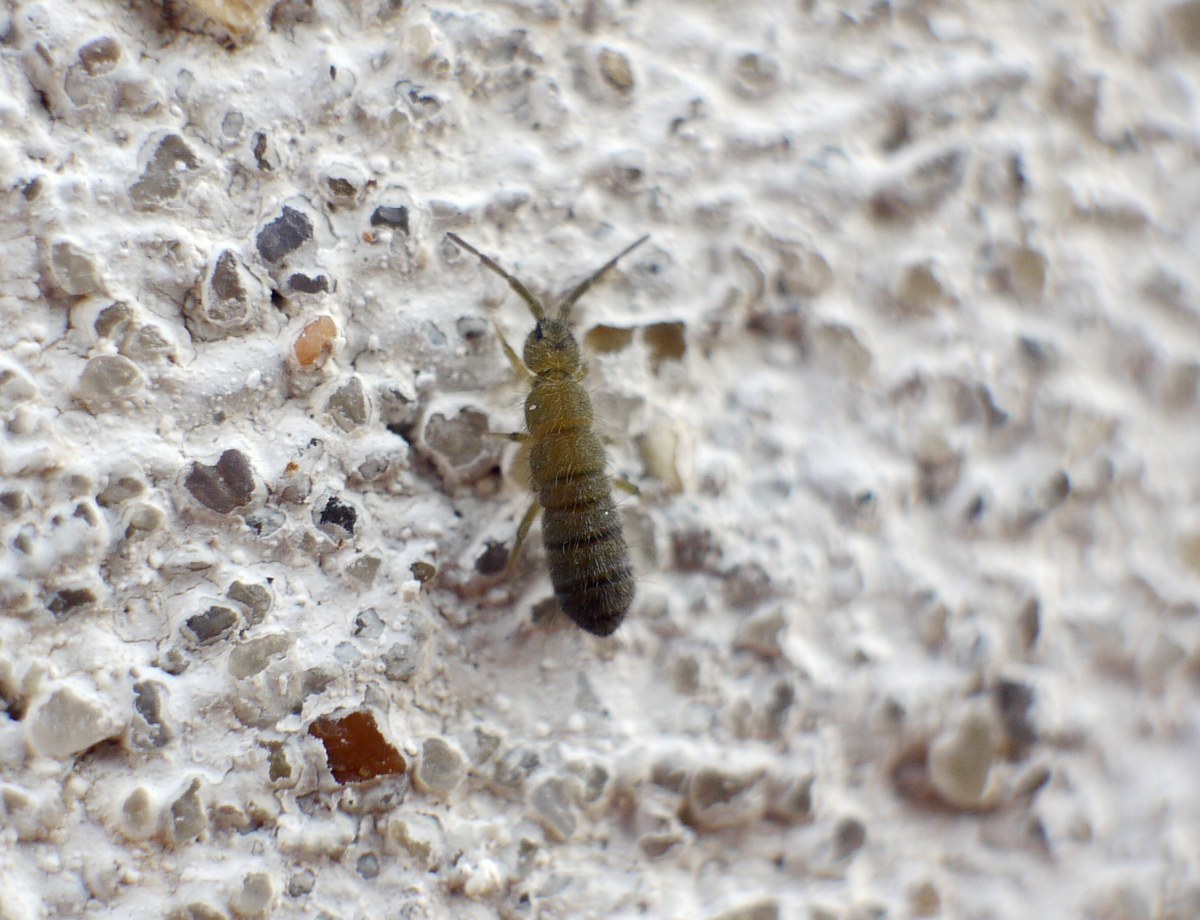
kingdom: Animalia
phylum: Arthropoda
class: Collembola
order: Entomobryomorpha
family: Isotomidae
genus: Isotoma
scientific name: Isotoma viridis
